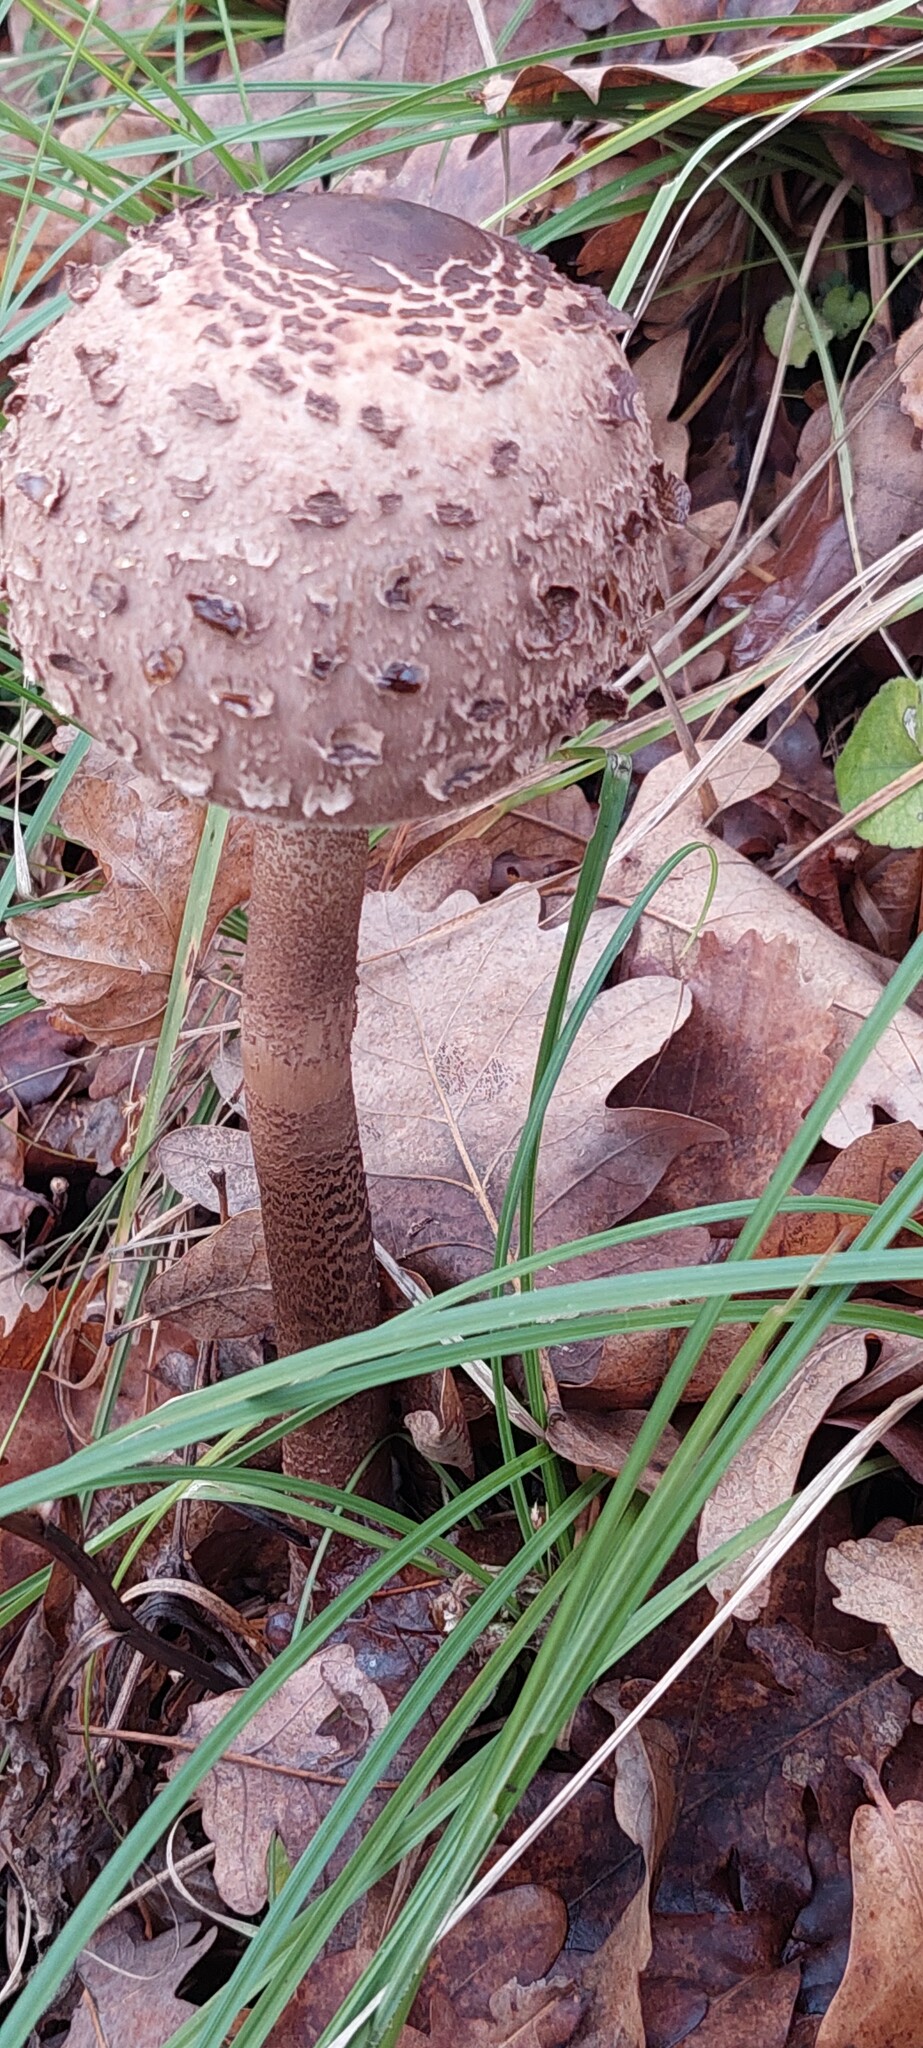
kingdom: Fungi
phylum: Basidiomycota
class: Agaricomycetes
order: Agaricales
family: Agaricaceae
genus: Macrolepiota
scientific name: Macrolepiota procera
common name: Parasol
